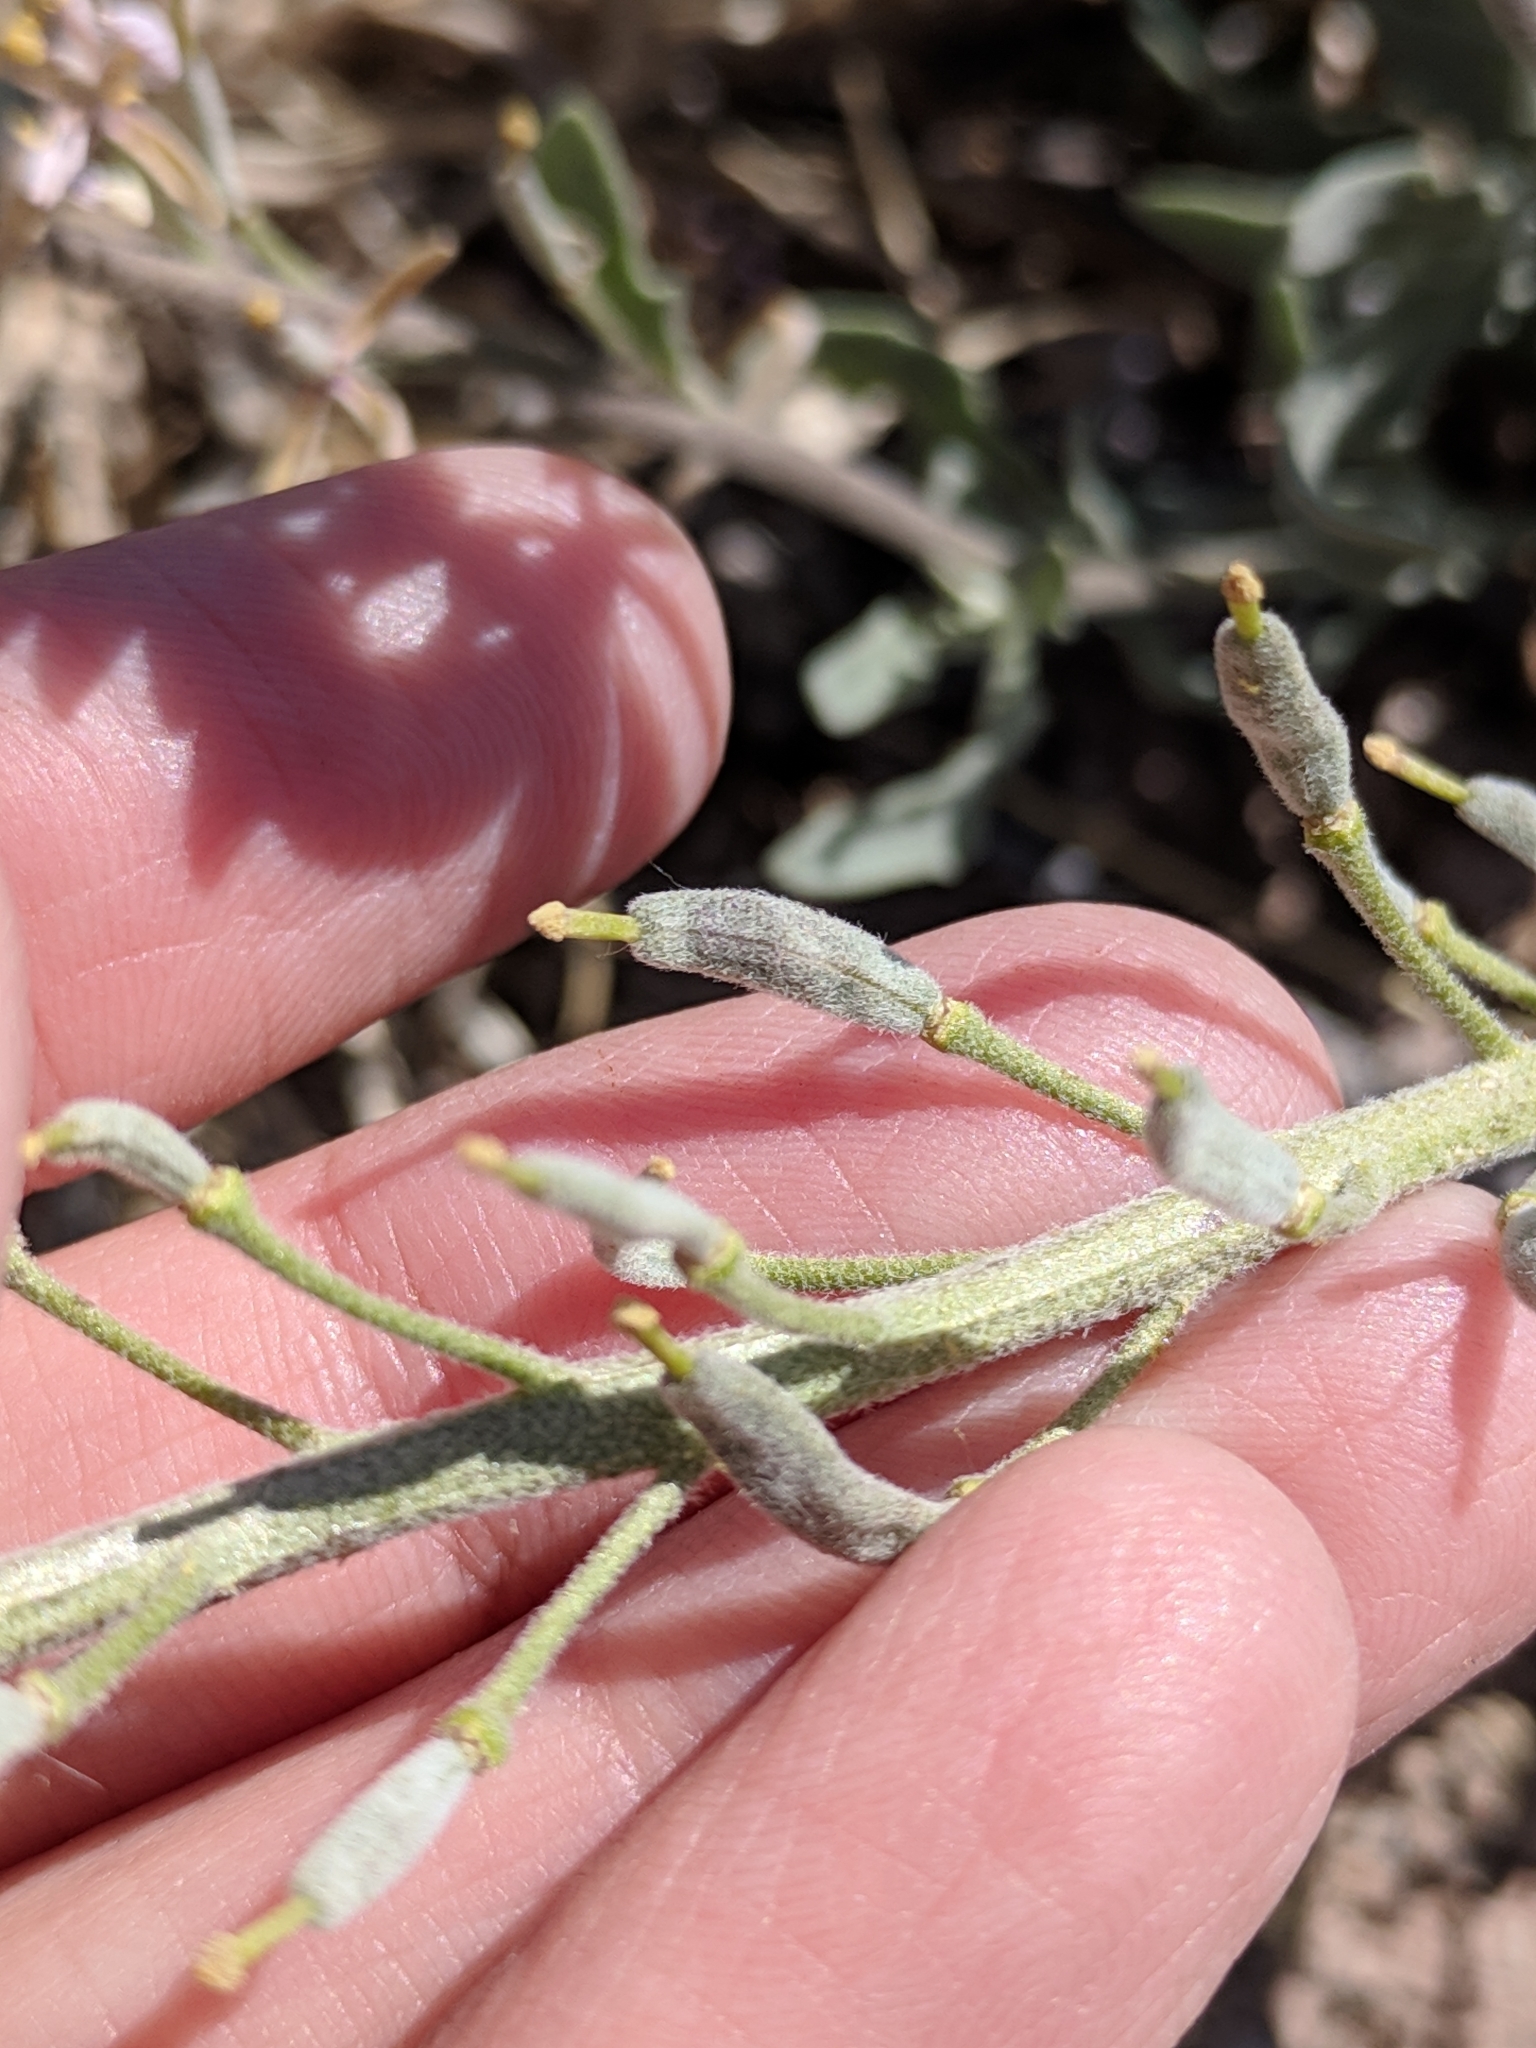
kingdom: Plantae
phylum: Tracheophyta
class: Magnoliopsida
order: Brassicales
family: Brassicaceae
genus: Nerisyrenia
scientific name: Nerisyrenia camporum
